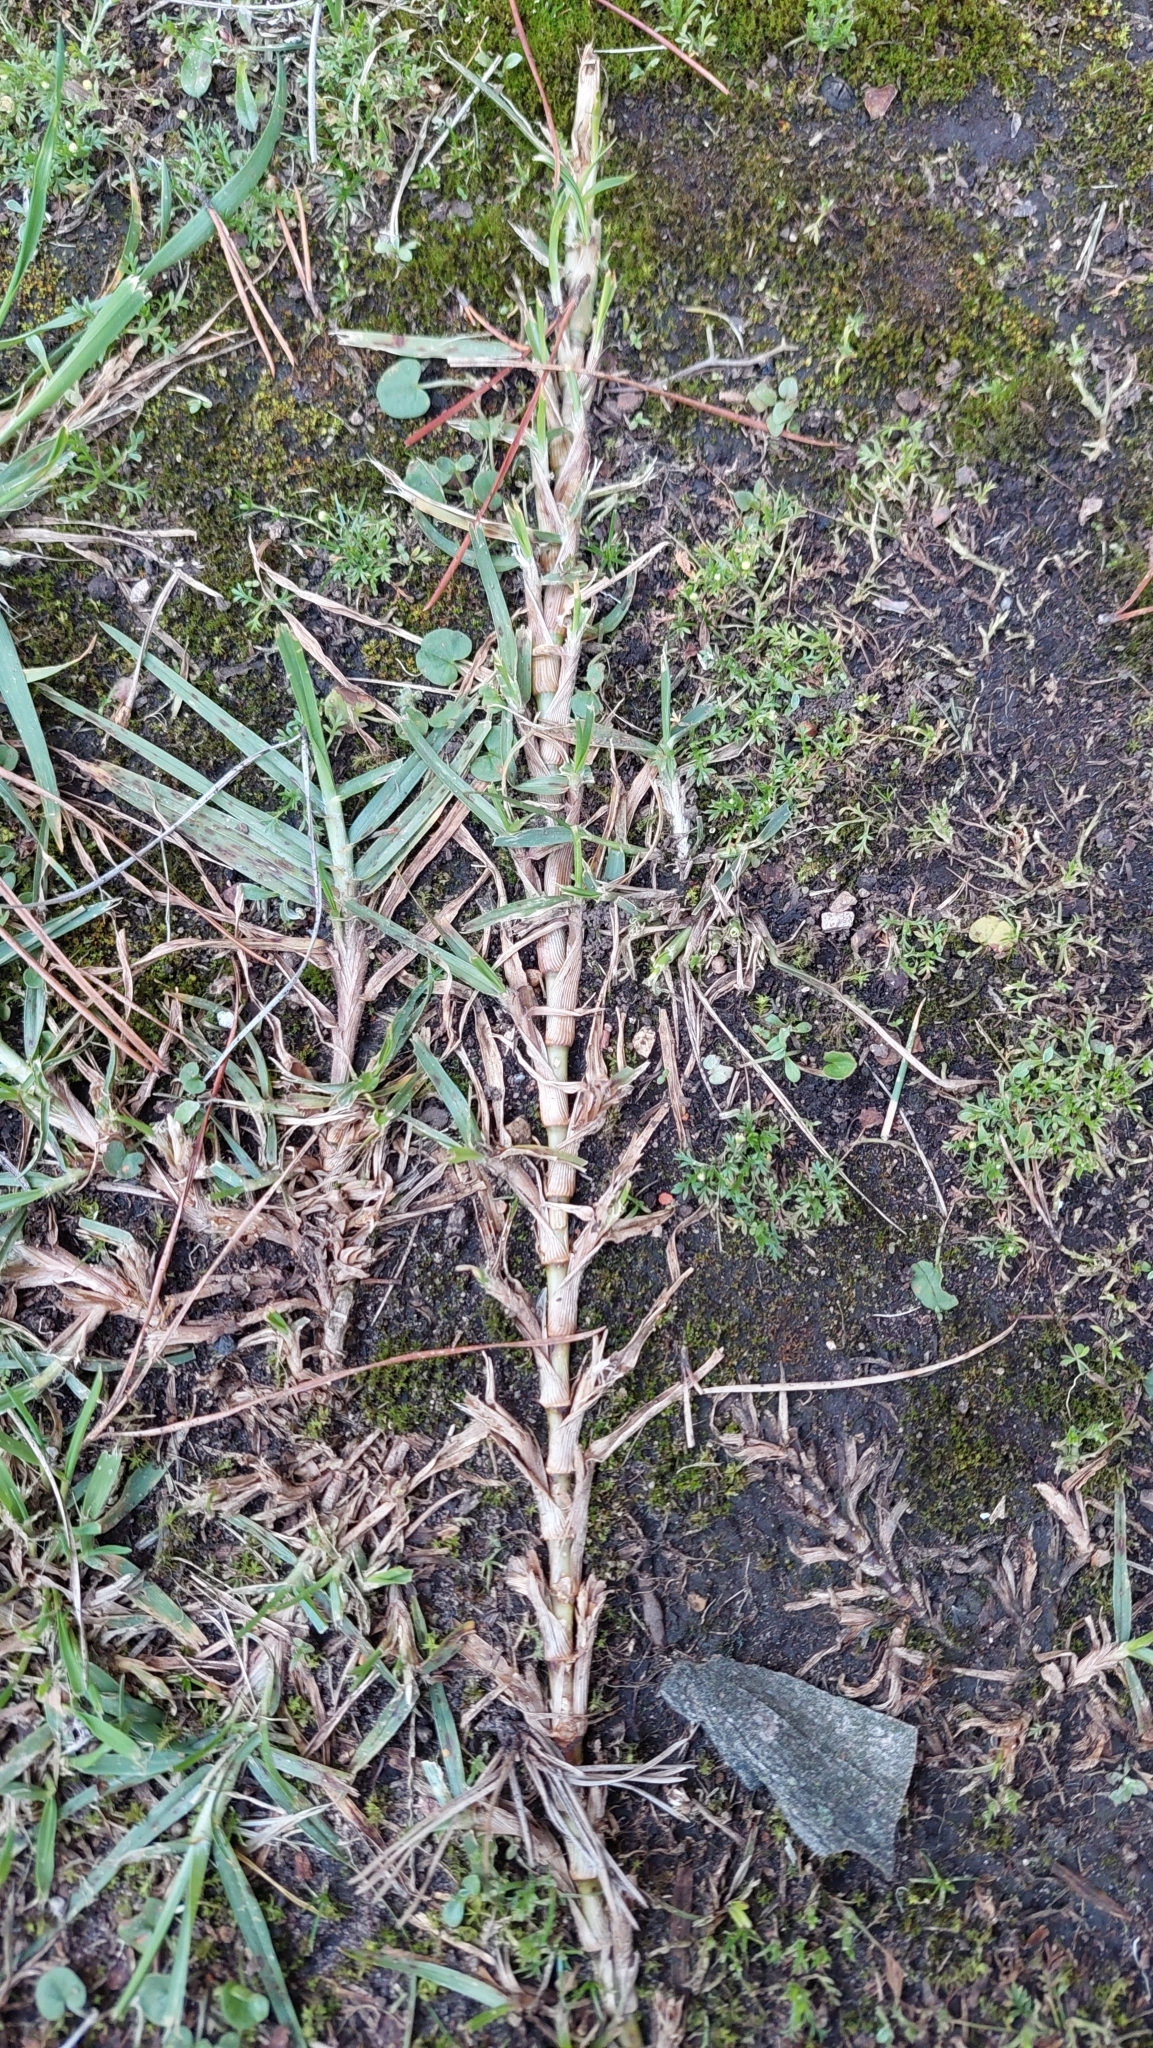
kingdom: Plantae
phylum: Tracheophyta
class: Liliopsida
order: Poales
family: Poaceae
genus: Cenchrus
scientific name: Cenchrus clandestinus
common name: Kikuyugrass
